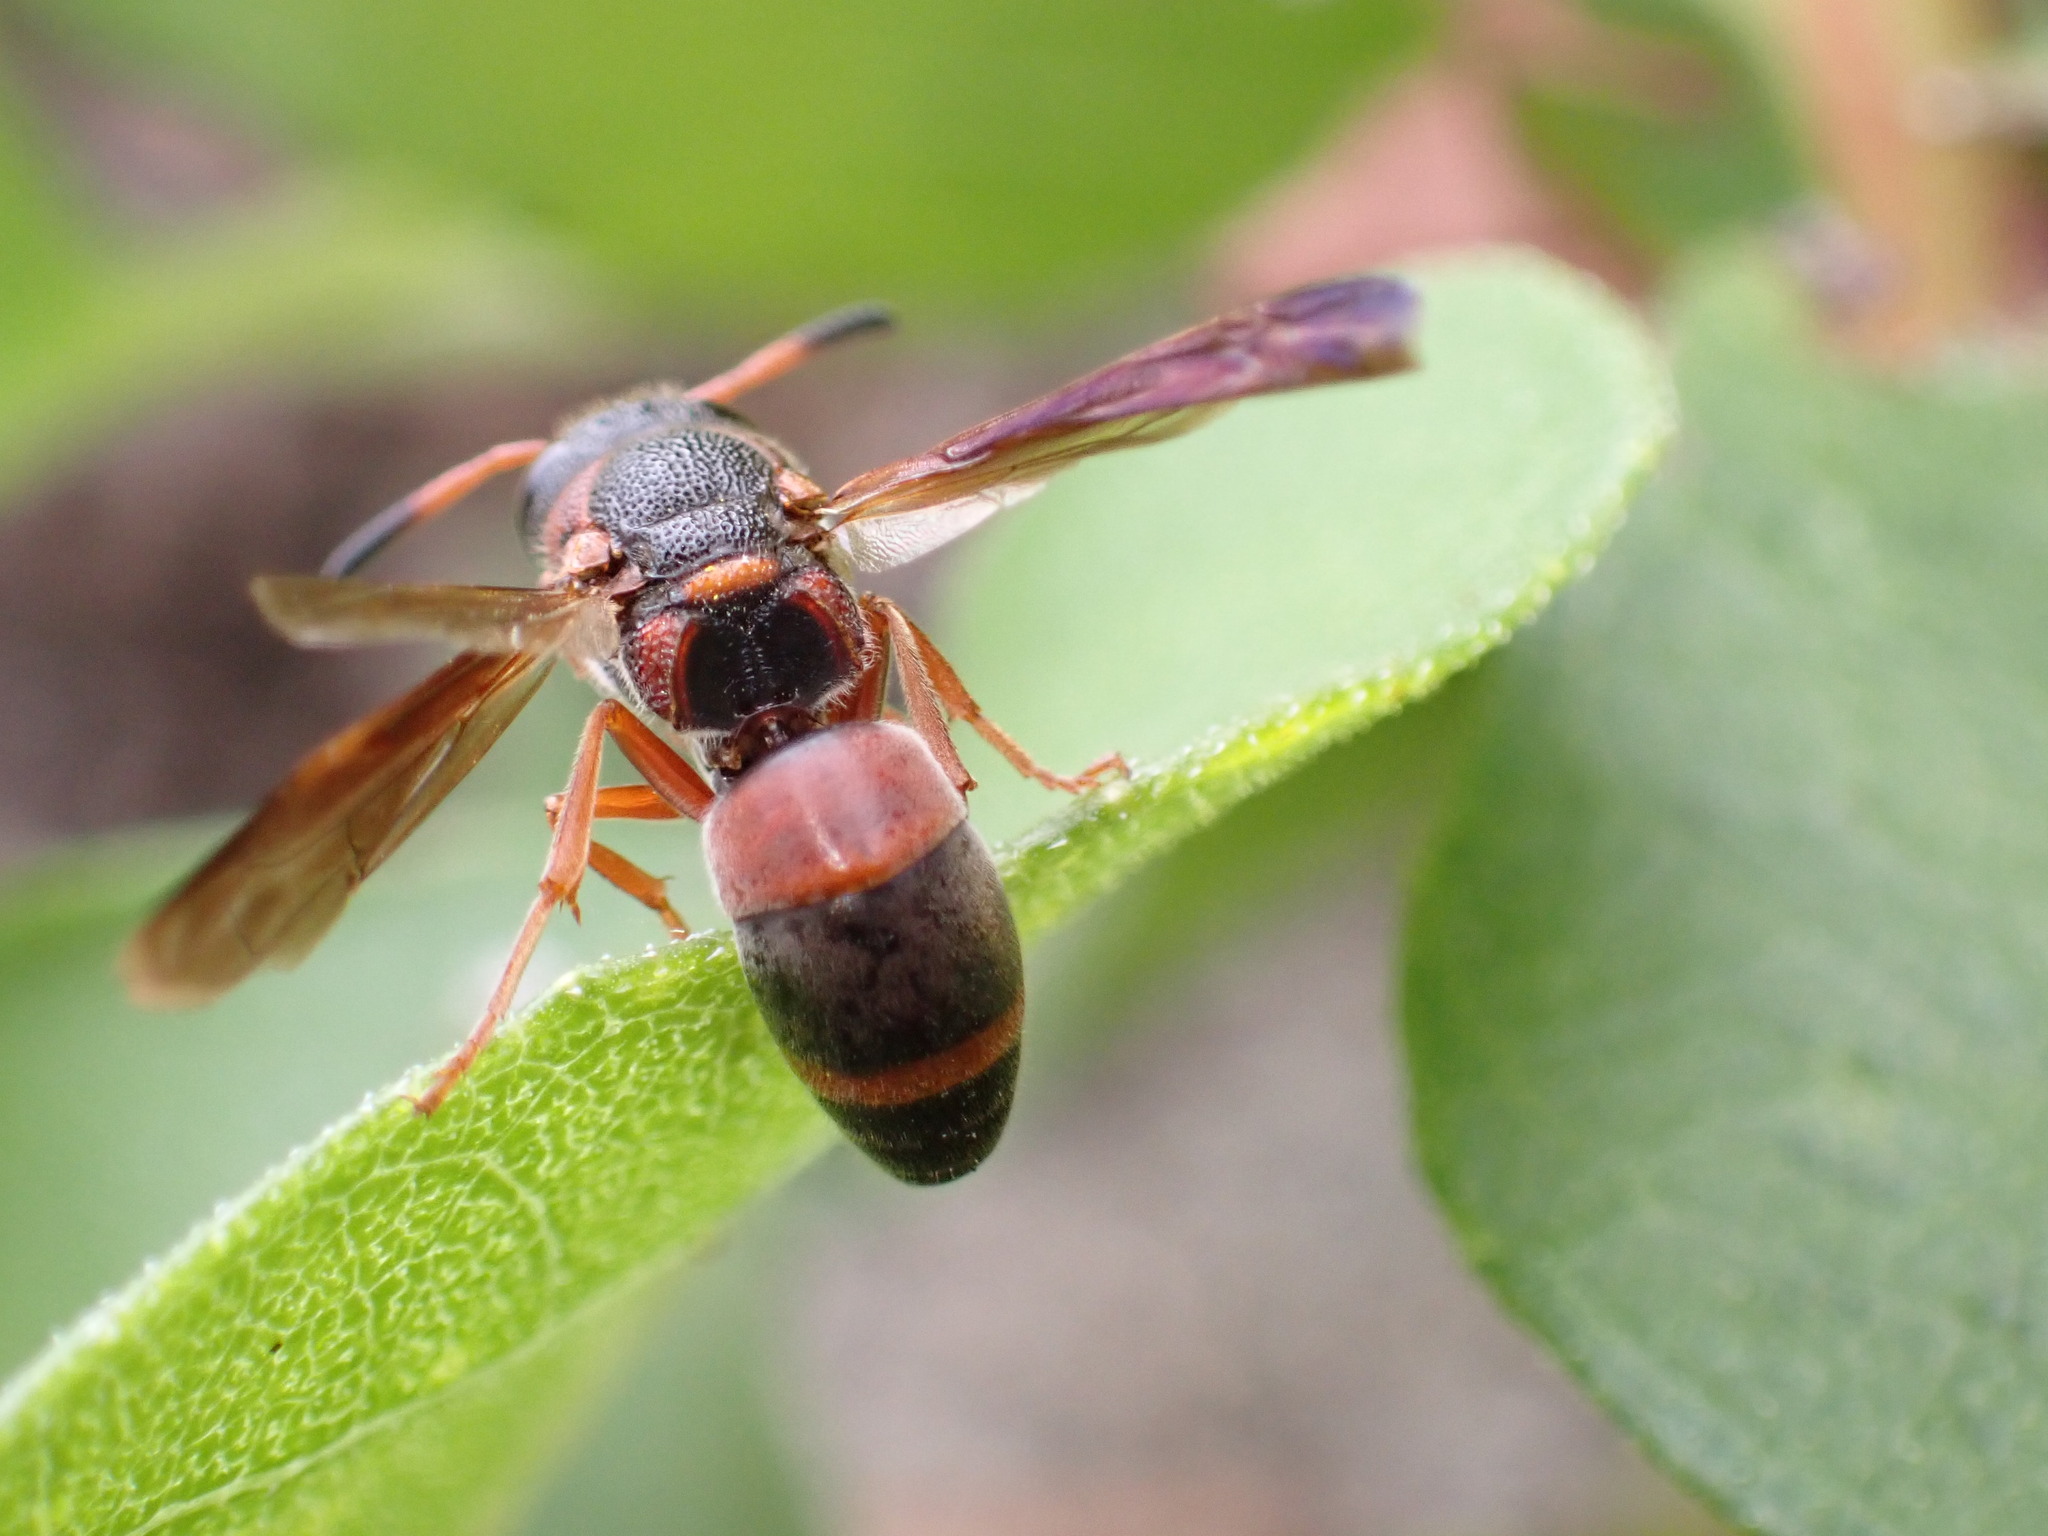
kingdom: Animalia
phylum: Arthropoda
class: Insecta
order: Hymenoptera
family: Eumenidae
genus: Pachodynerus
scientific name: Pachodynerus erynnis
